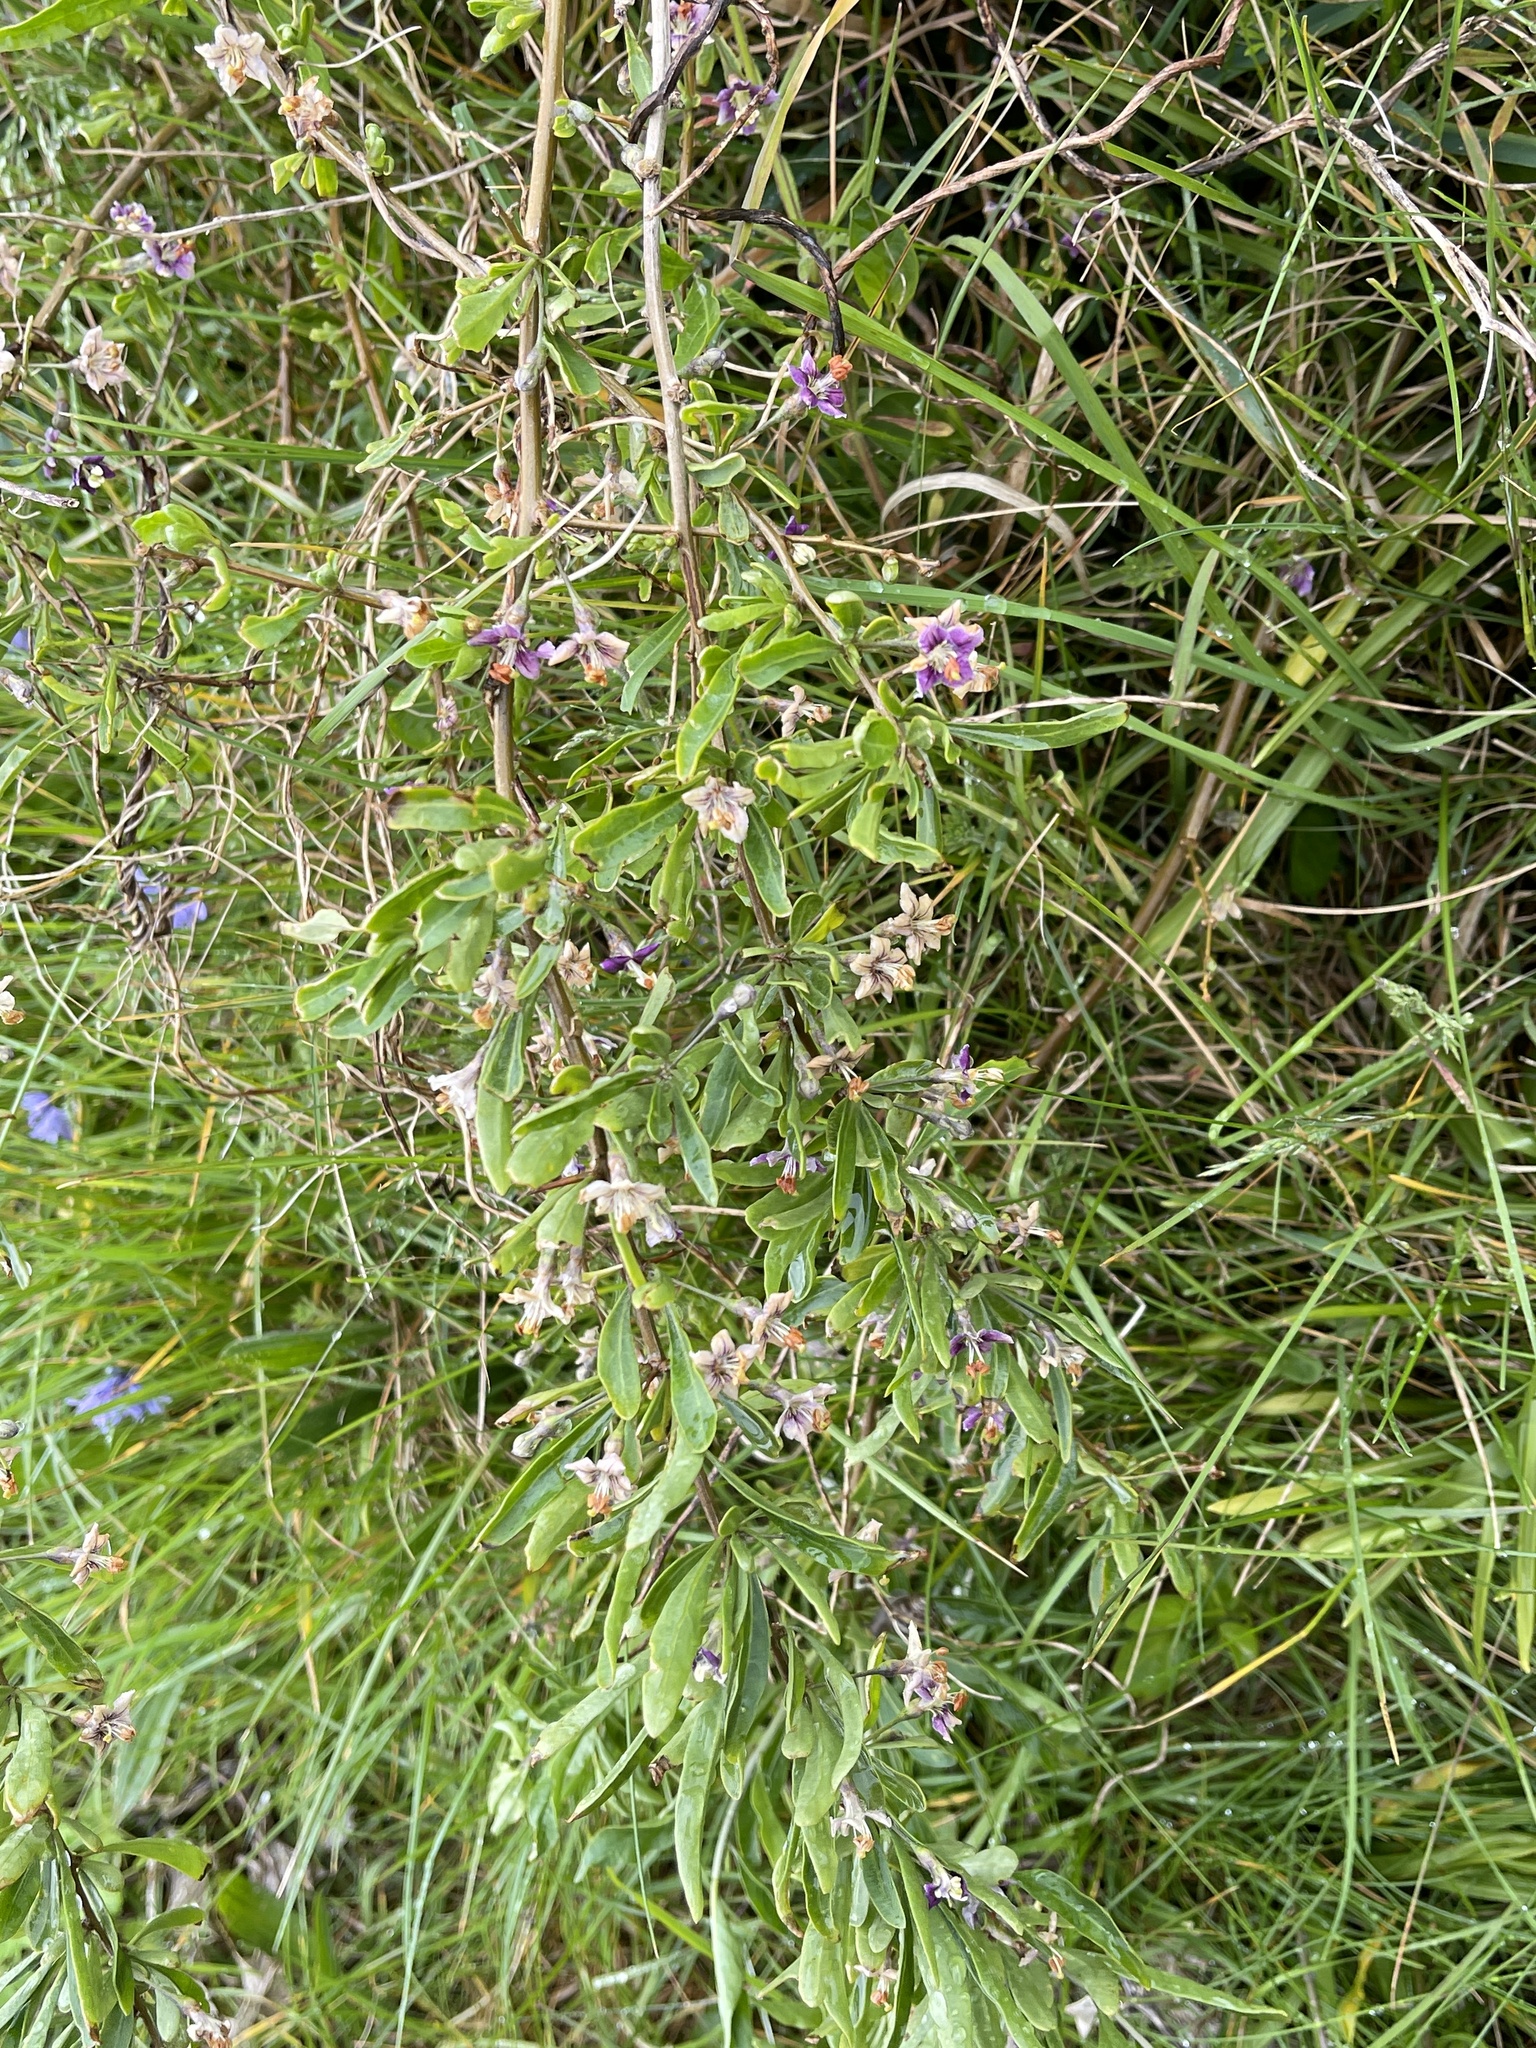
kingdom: Plantae
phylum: Tracheophyta
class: Magnoliopsida
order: Solanales
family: Solanaceae
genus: Lycium
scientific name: Lycium barbarum
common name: Duke of argyll's teaplant
